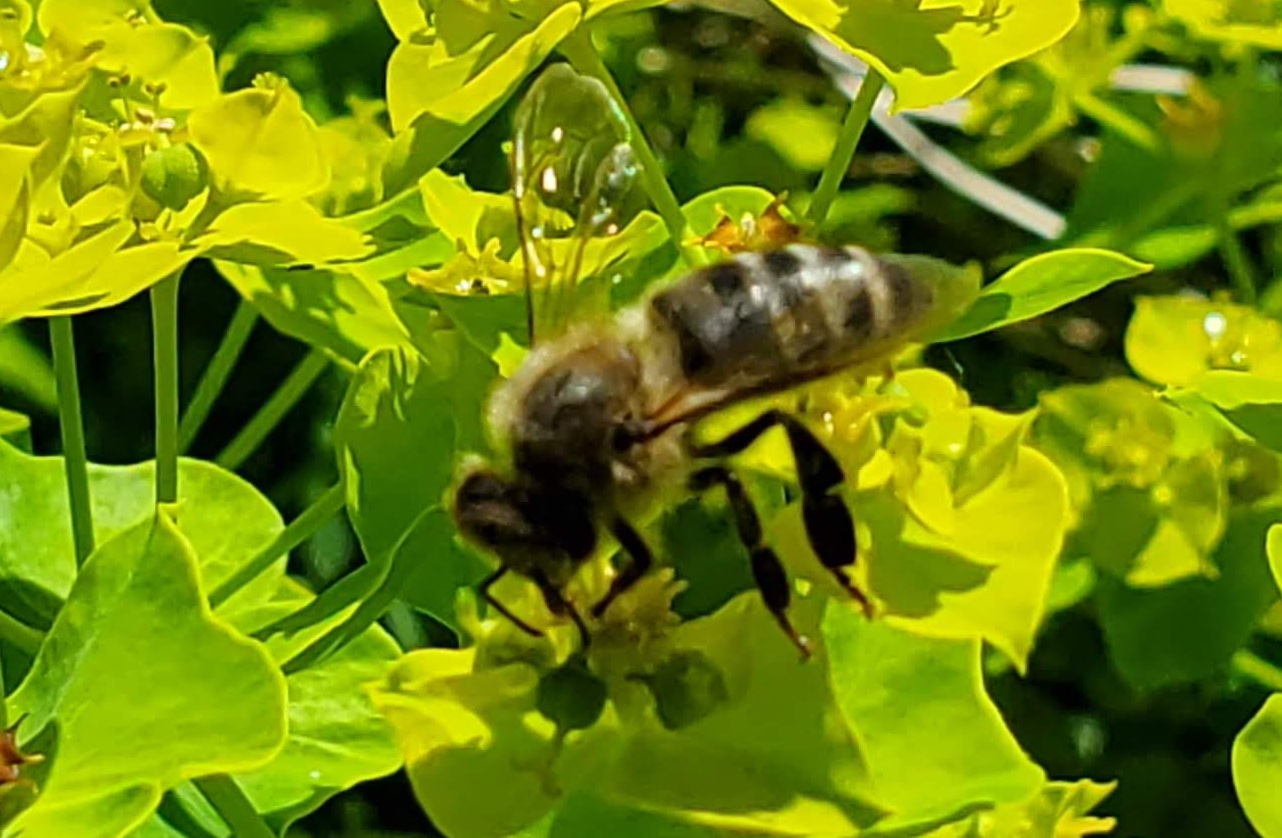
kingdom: Animalia
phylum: Arthropoda
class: Insecta
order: Hymenoptera
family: Apidae
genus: Apis
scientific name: Apis mellifera
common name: Honey bee
